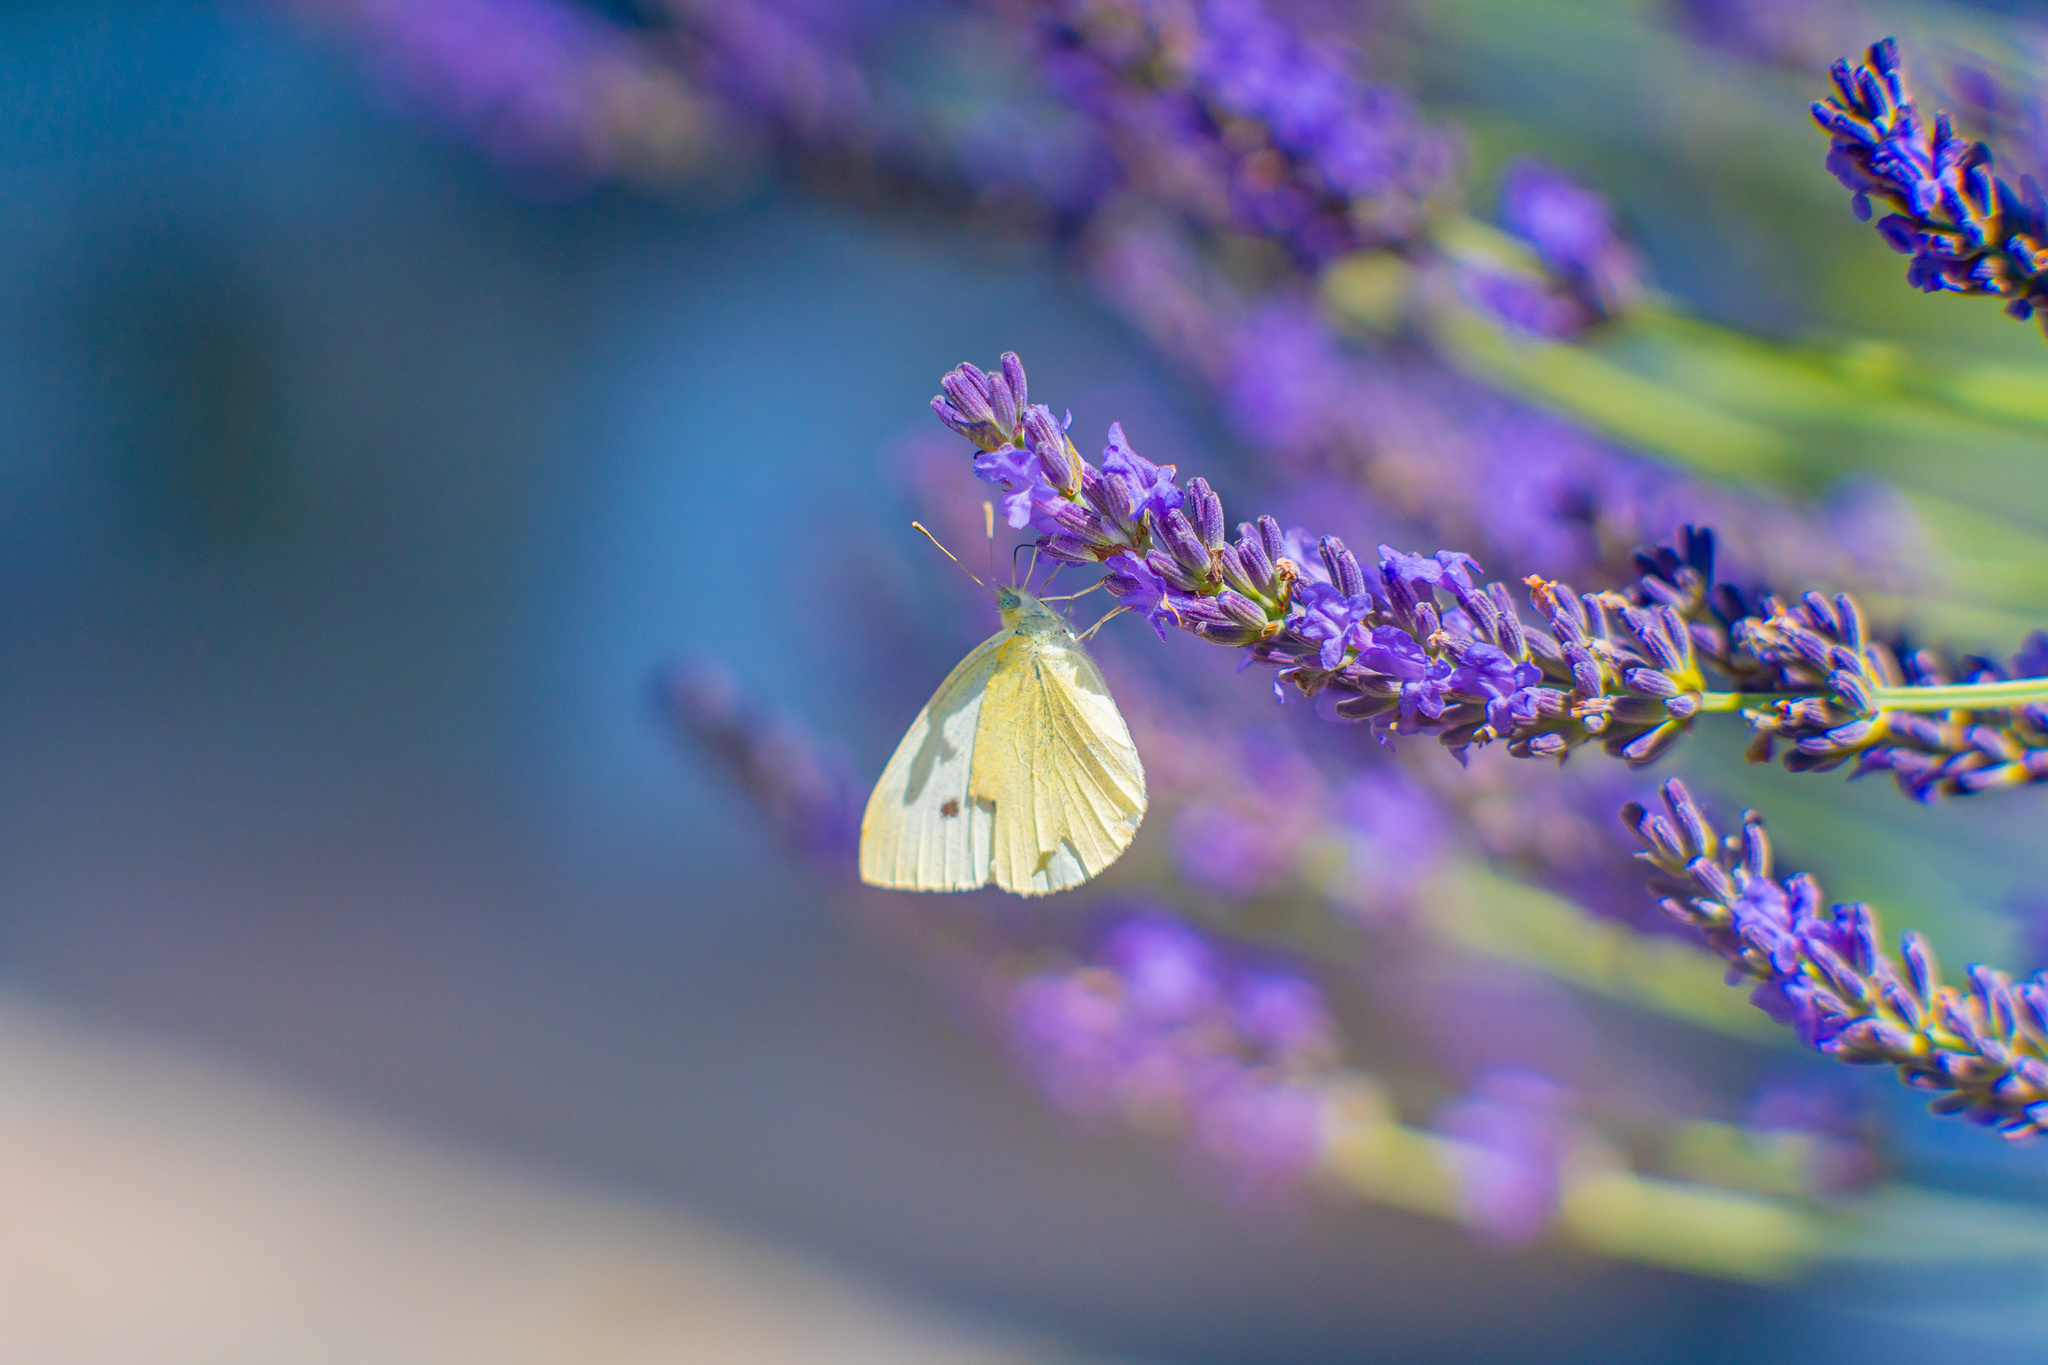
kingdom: Animalia
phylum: Arthropoda
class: Insecta
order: Lepidoptera
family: Pieridae
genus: Pieris
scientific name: Pieris brassicae
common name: Large white
